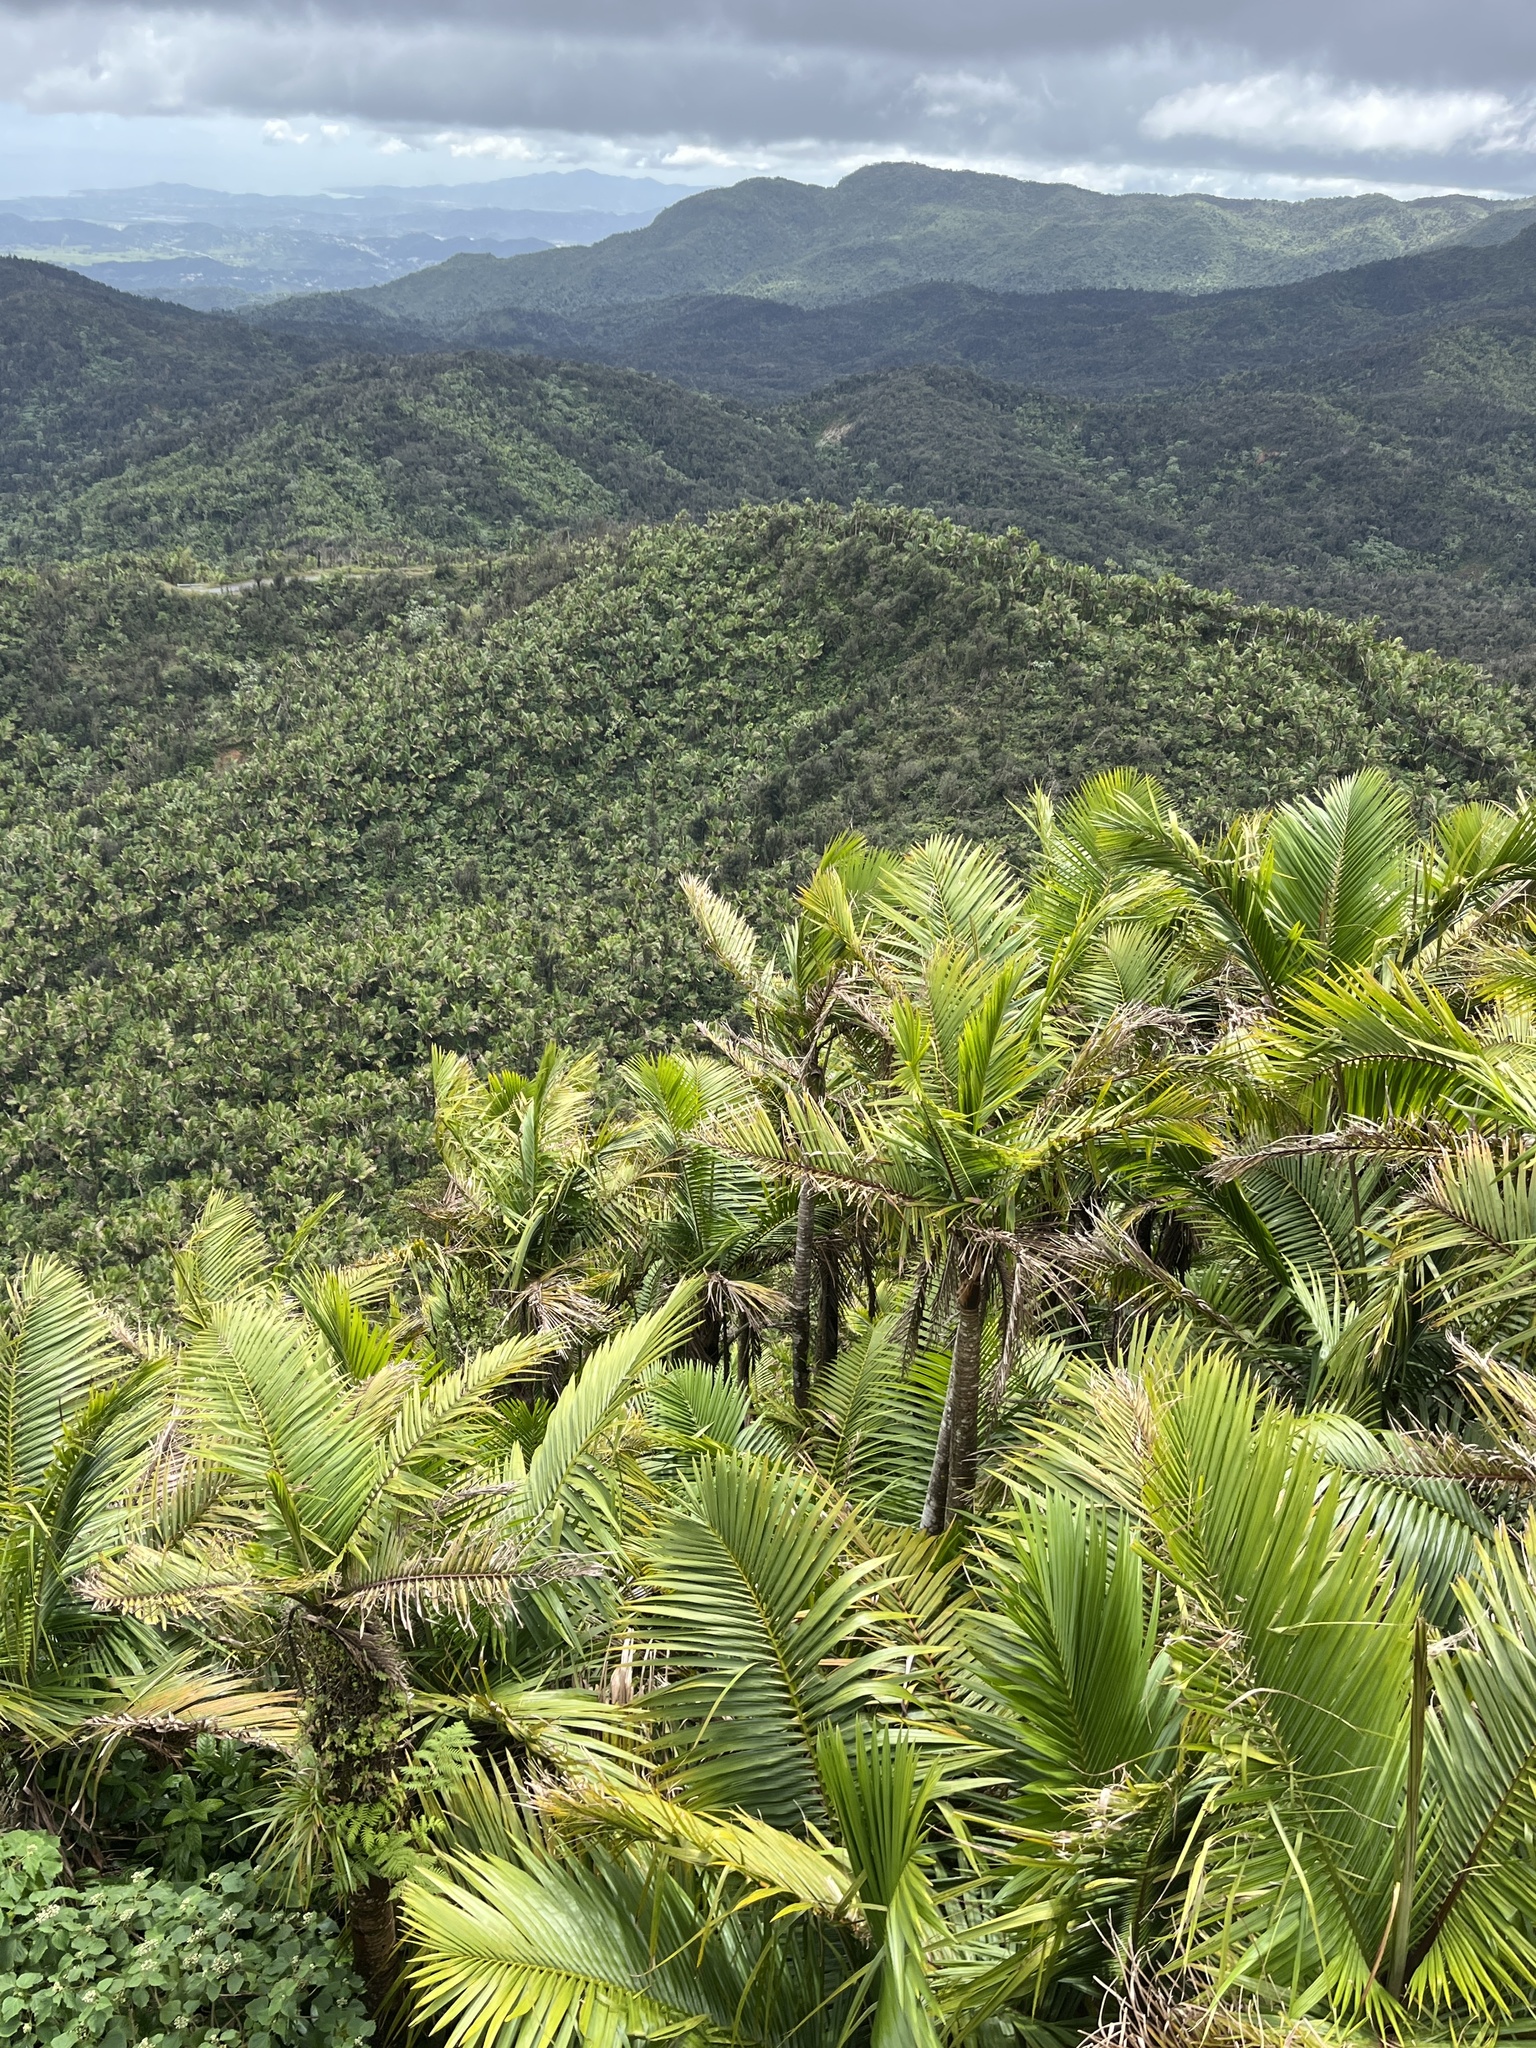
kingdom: Plantae
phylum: Tracheophyta
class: Liliopsida
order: Arecales
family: Arecaceae
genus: Prestoea
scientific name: Prestoea acuminata
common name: Sierran palm
